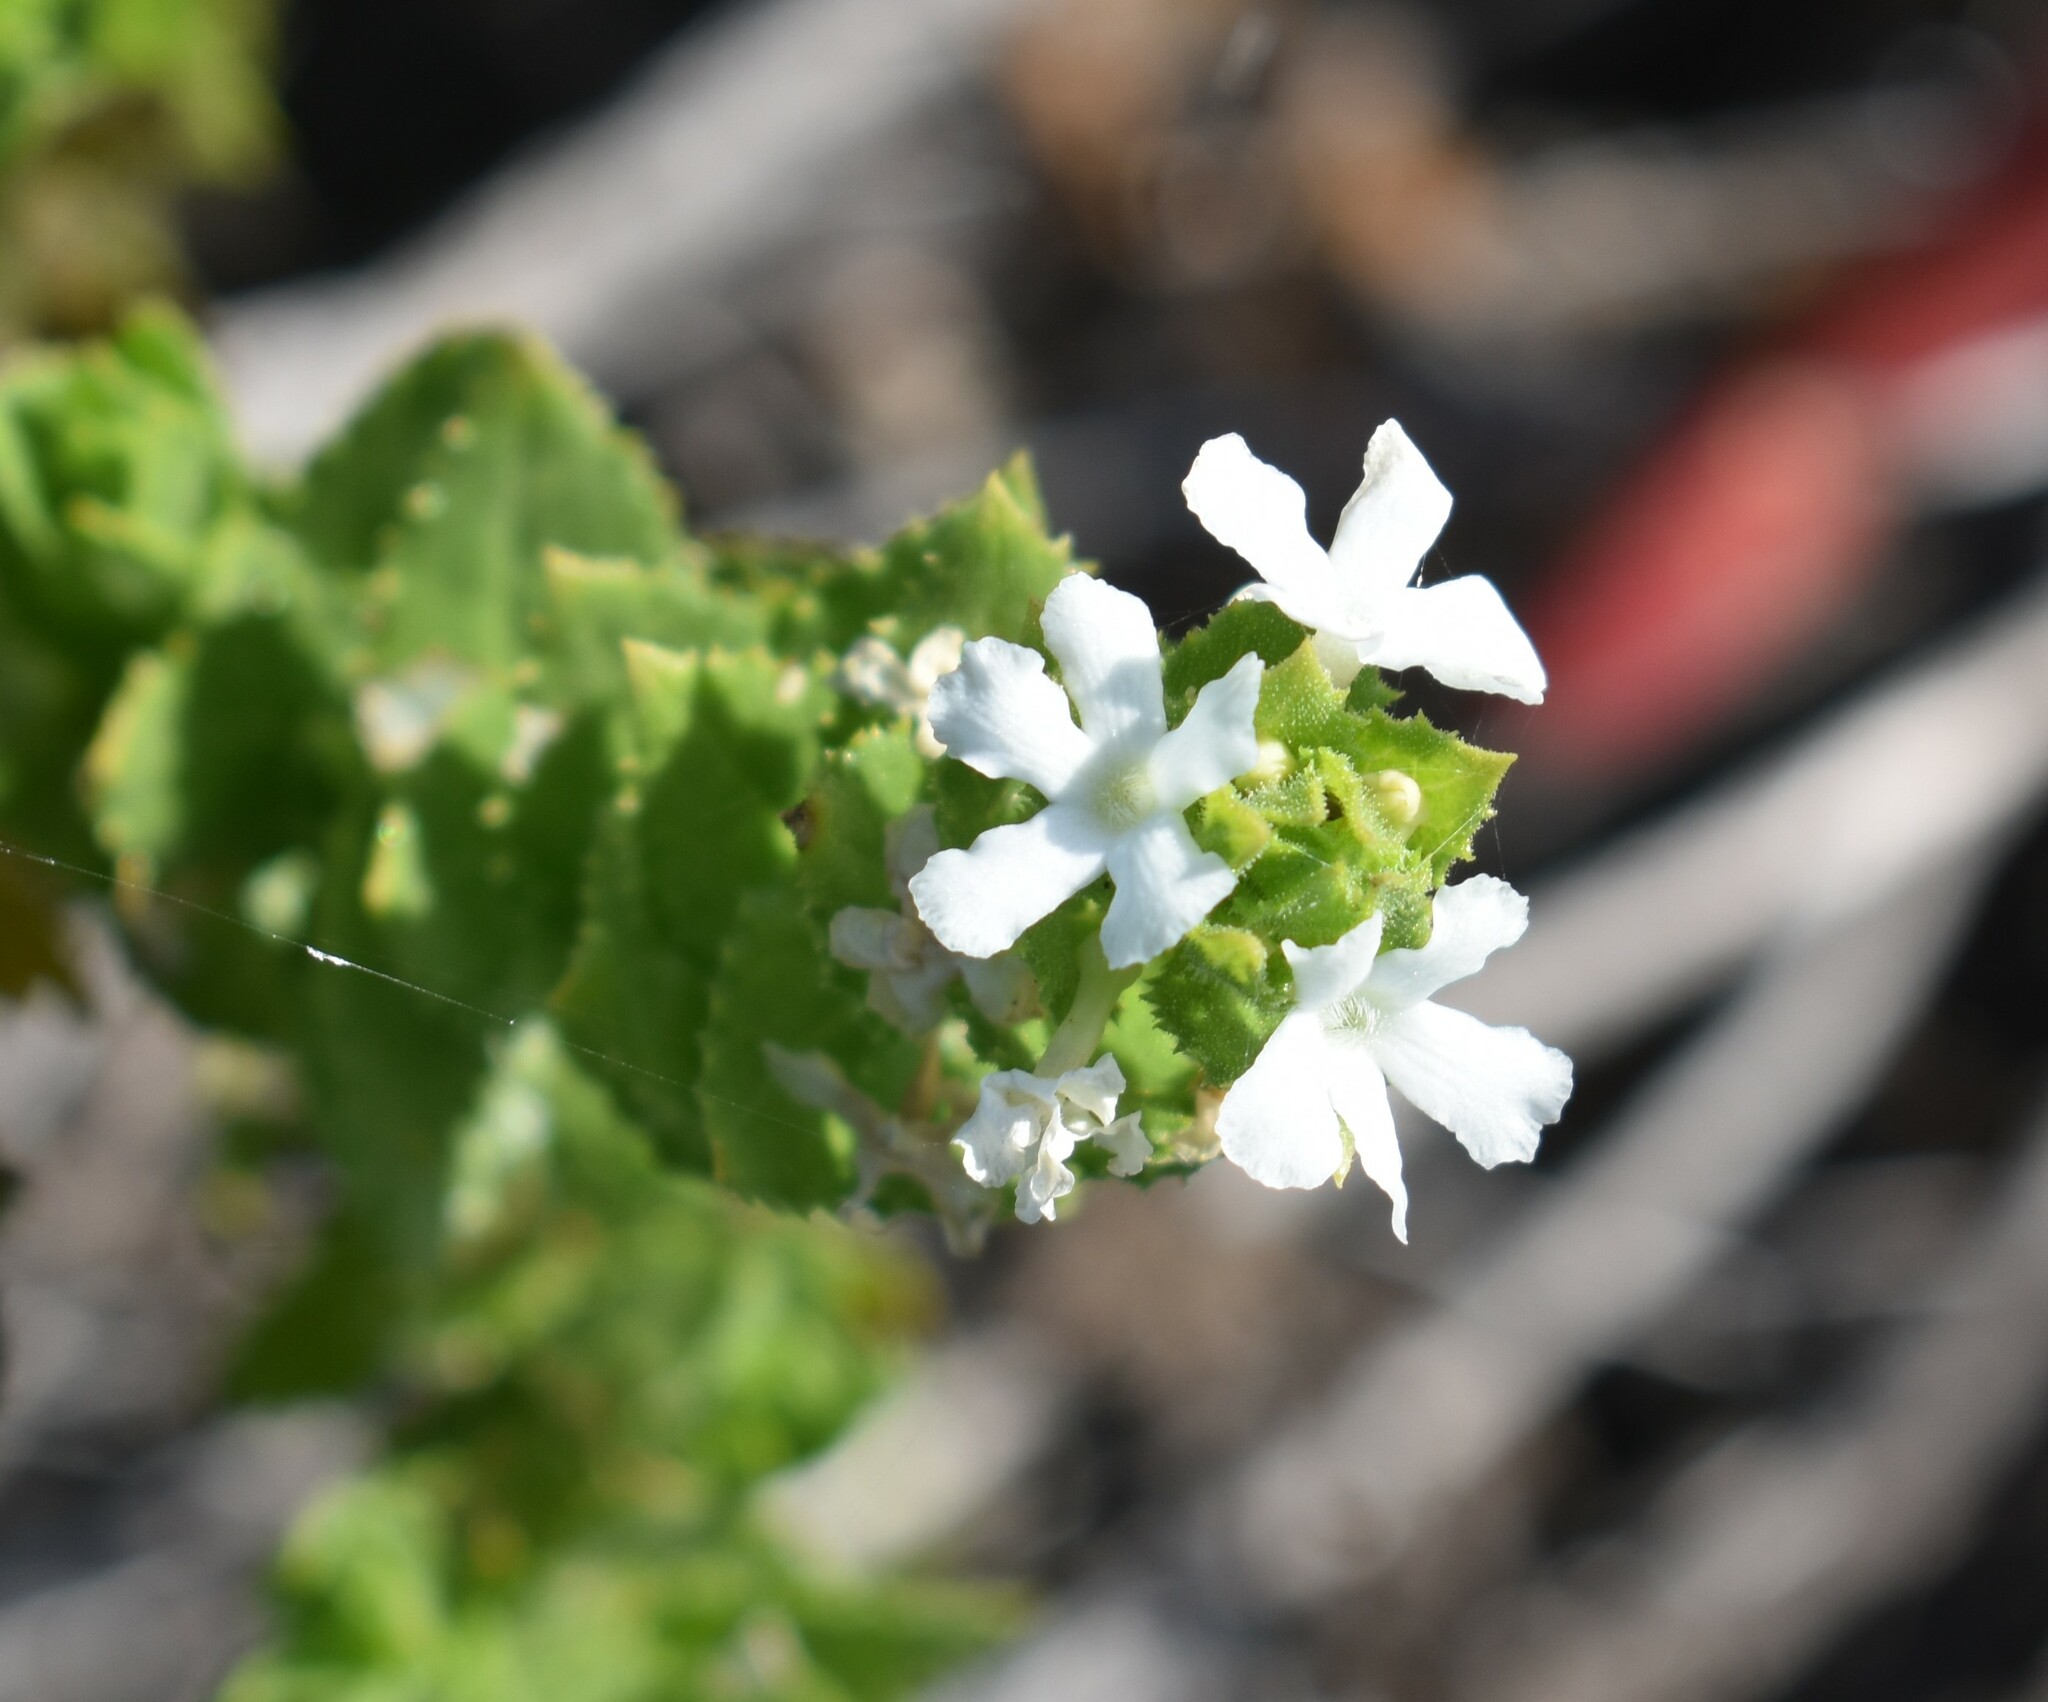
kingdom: Plantae
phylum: Tracheophyta
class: Magnoliopsida
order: Lamiales
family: Scrophulariaceae
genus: Oftia
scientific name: Oftia africana
